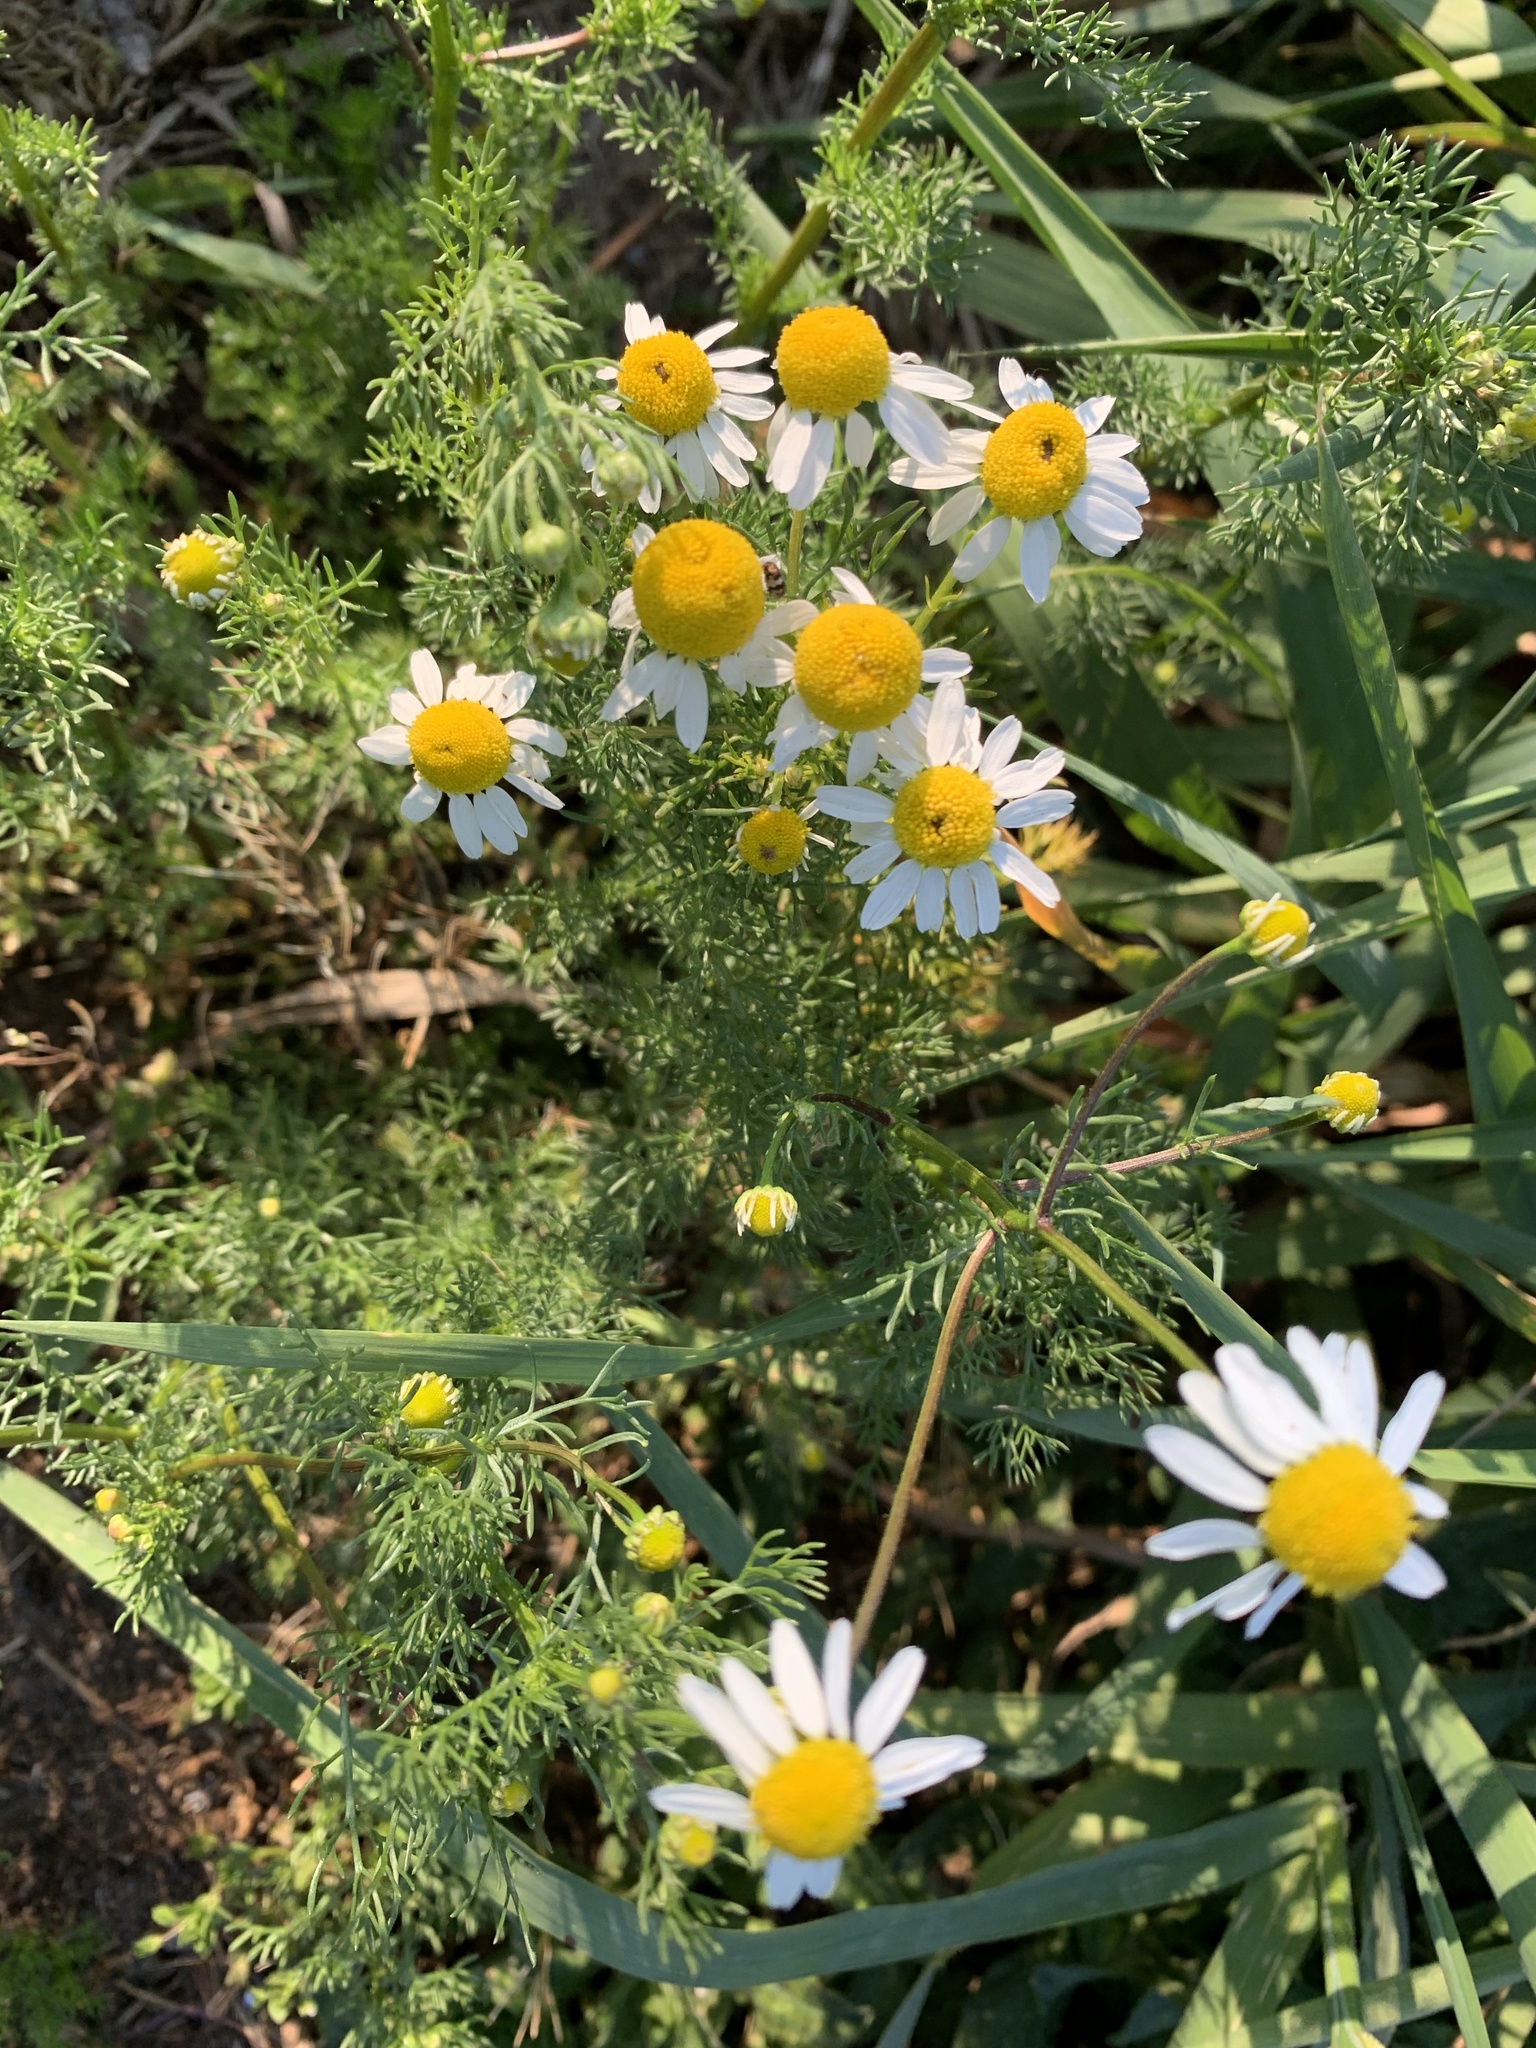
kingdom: Plantae
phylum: Tracheophyta
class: Magnoliopsida
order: Asterales
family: Asteraceae
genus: Matricaria
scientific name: Matricaria chamomilla
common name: Scented mayweed
